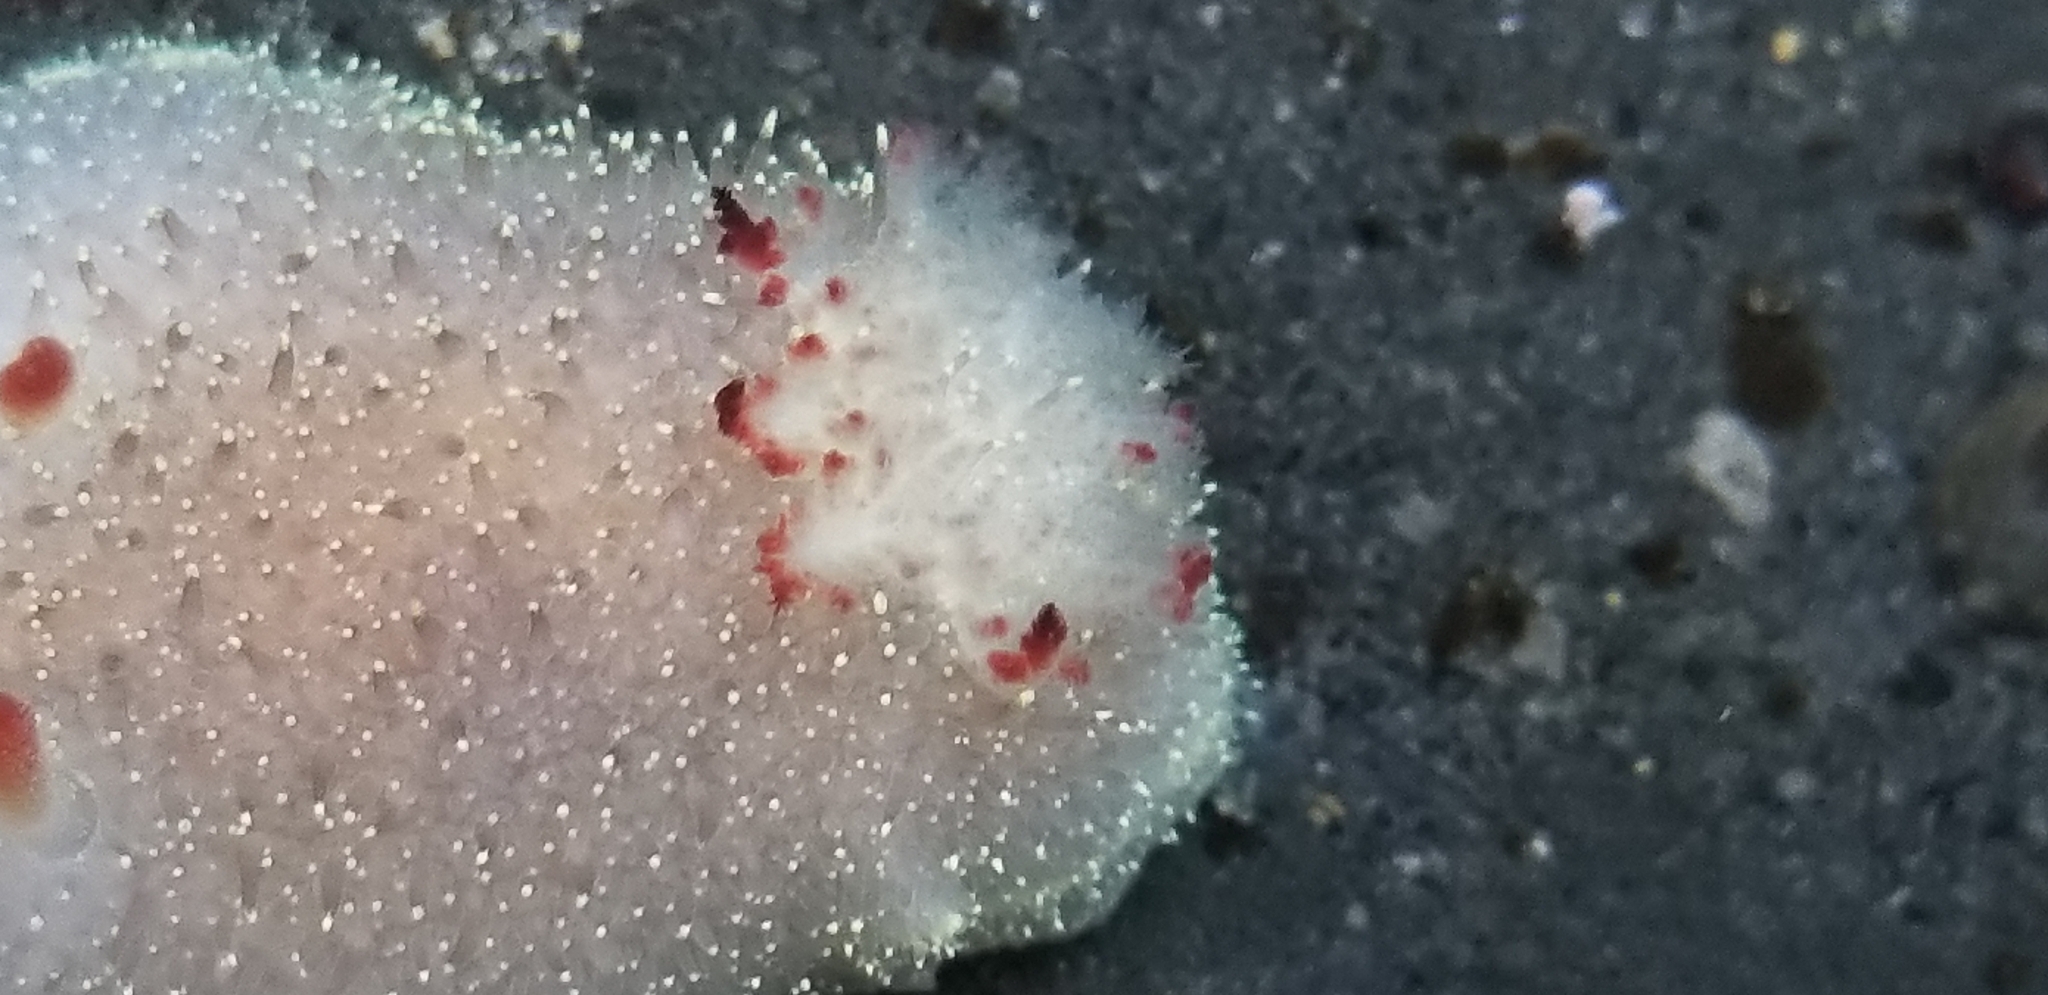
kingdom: Animalia
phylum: Mollusca
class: Gastropoda
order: Nudibranchia
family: Onchidorididae
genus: Acanthodoris
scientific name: Acanthodoris nanaimoensis
